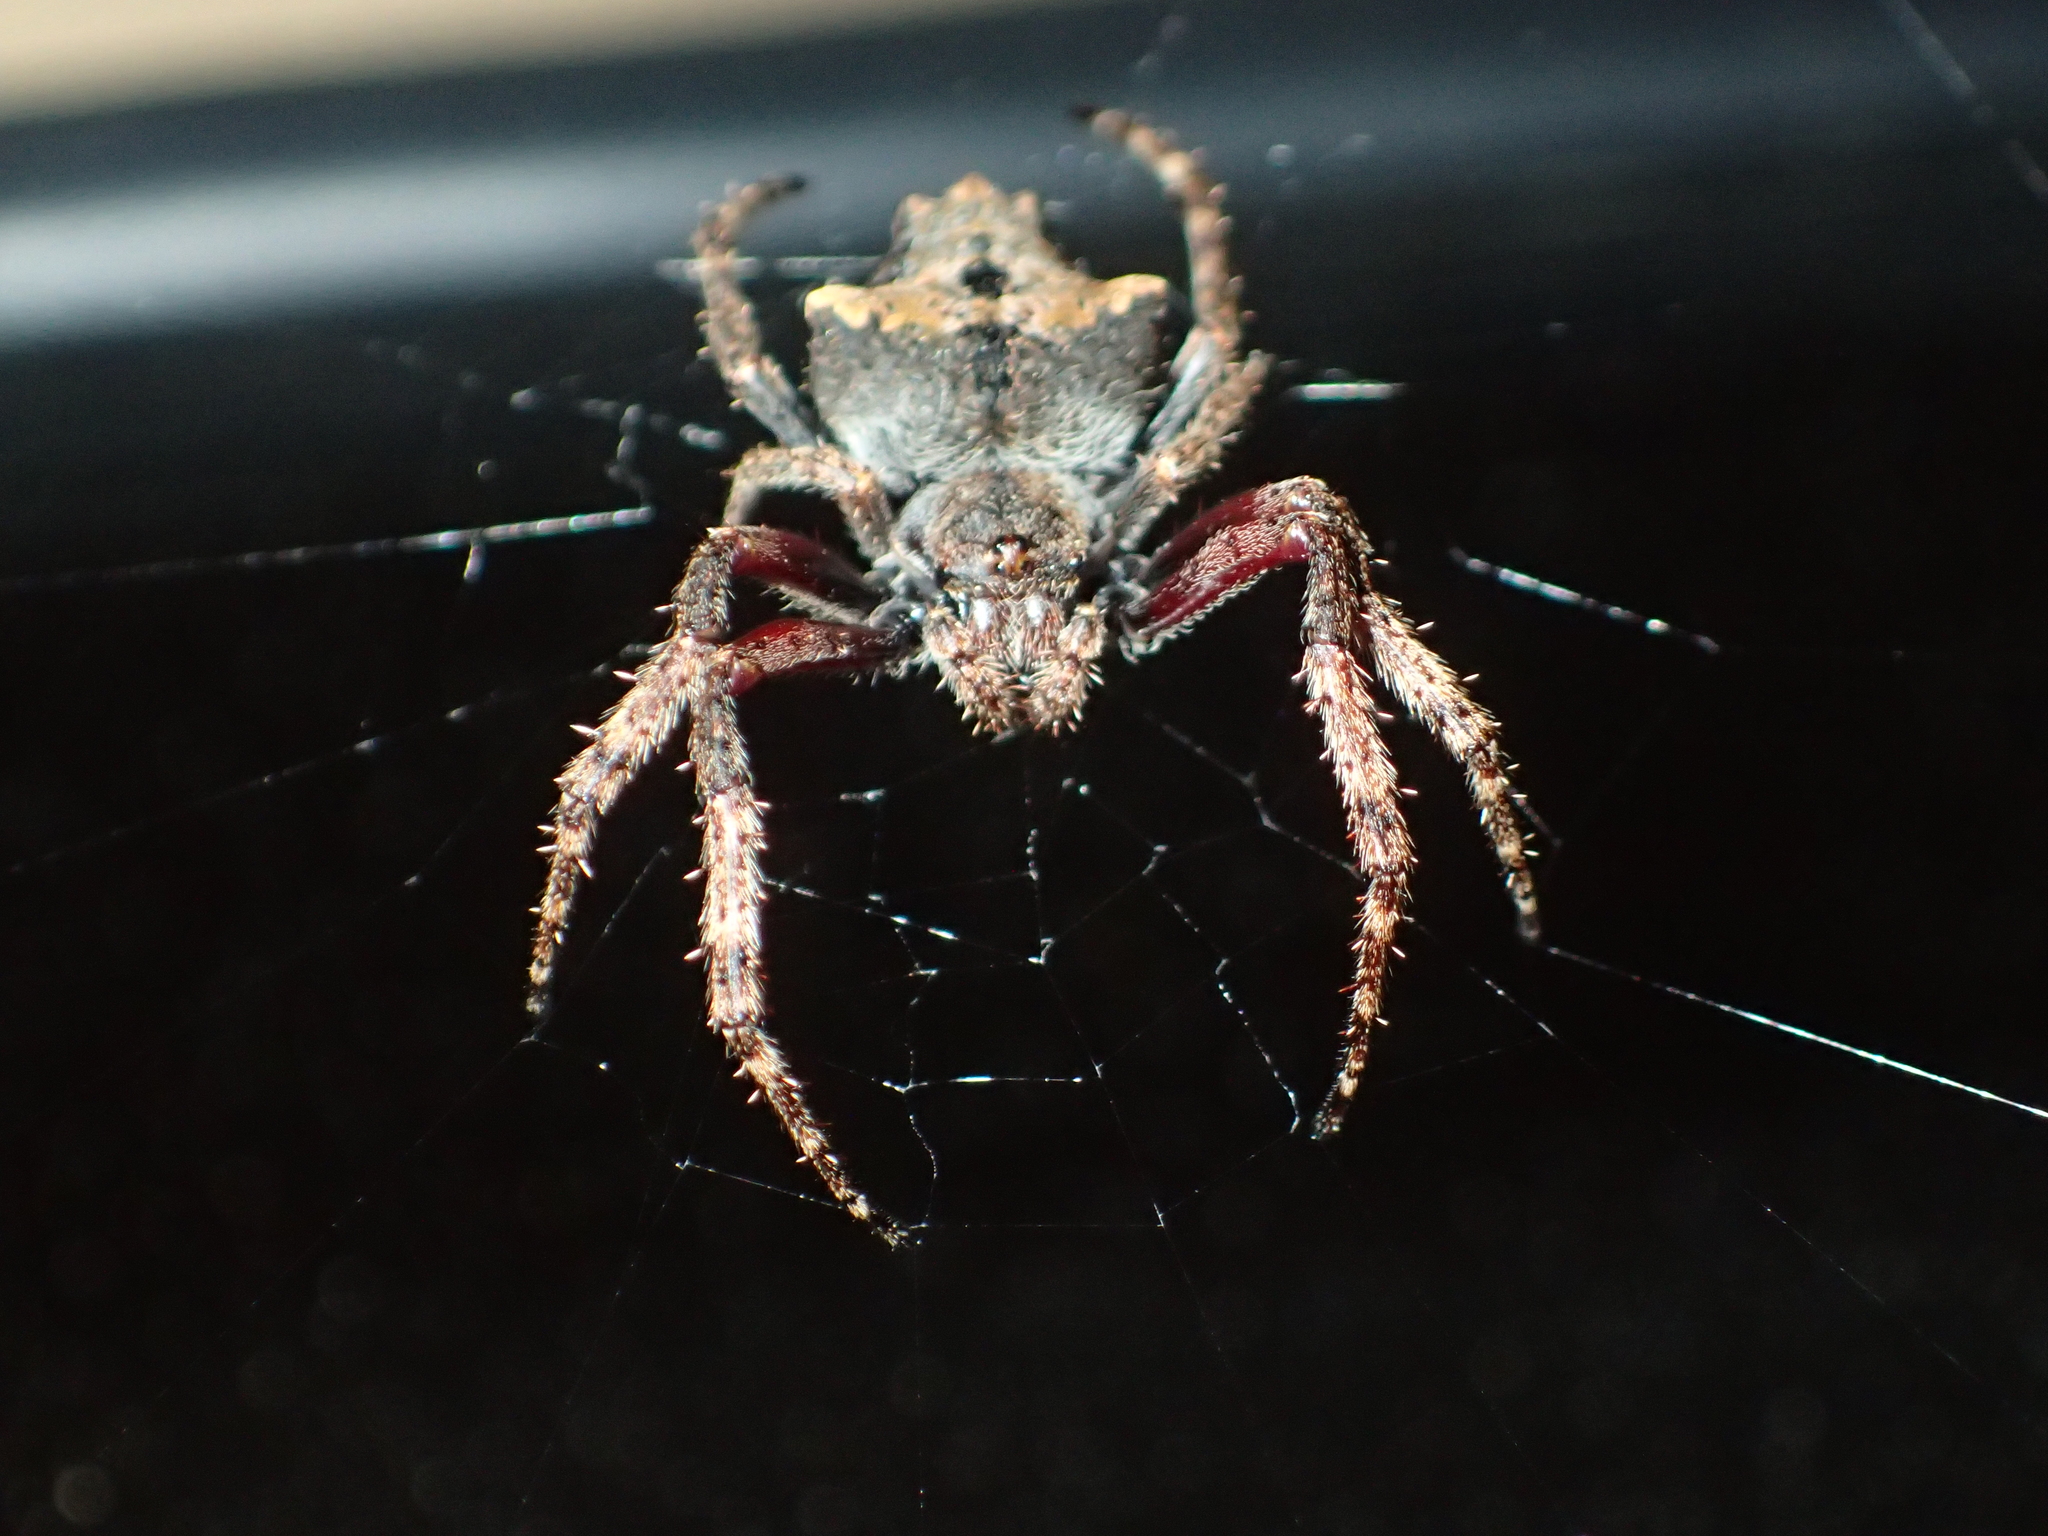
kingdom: Animalia
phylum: Arthropoda
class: Arachnida
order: Araneae
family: Araneidae
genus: Eriophora
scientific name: Eriophora pustulosa
